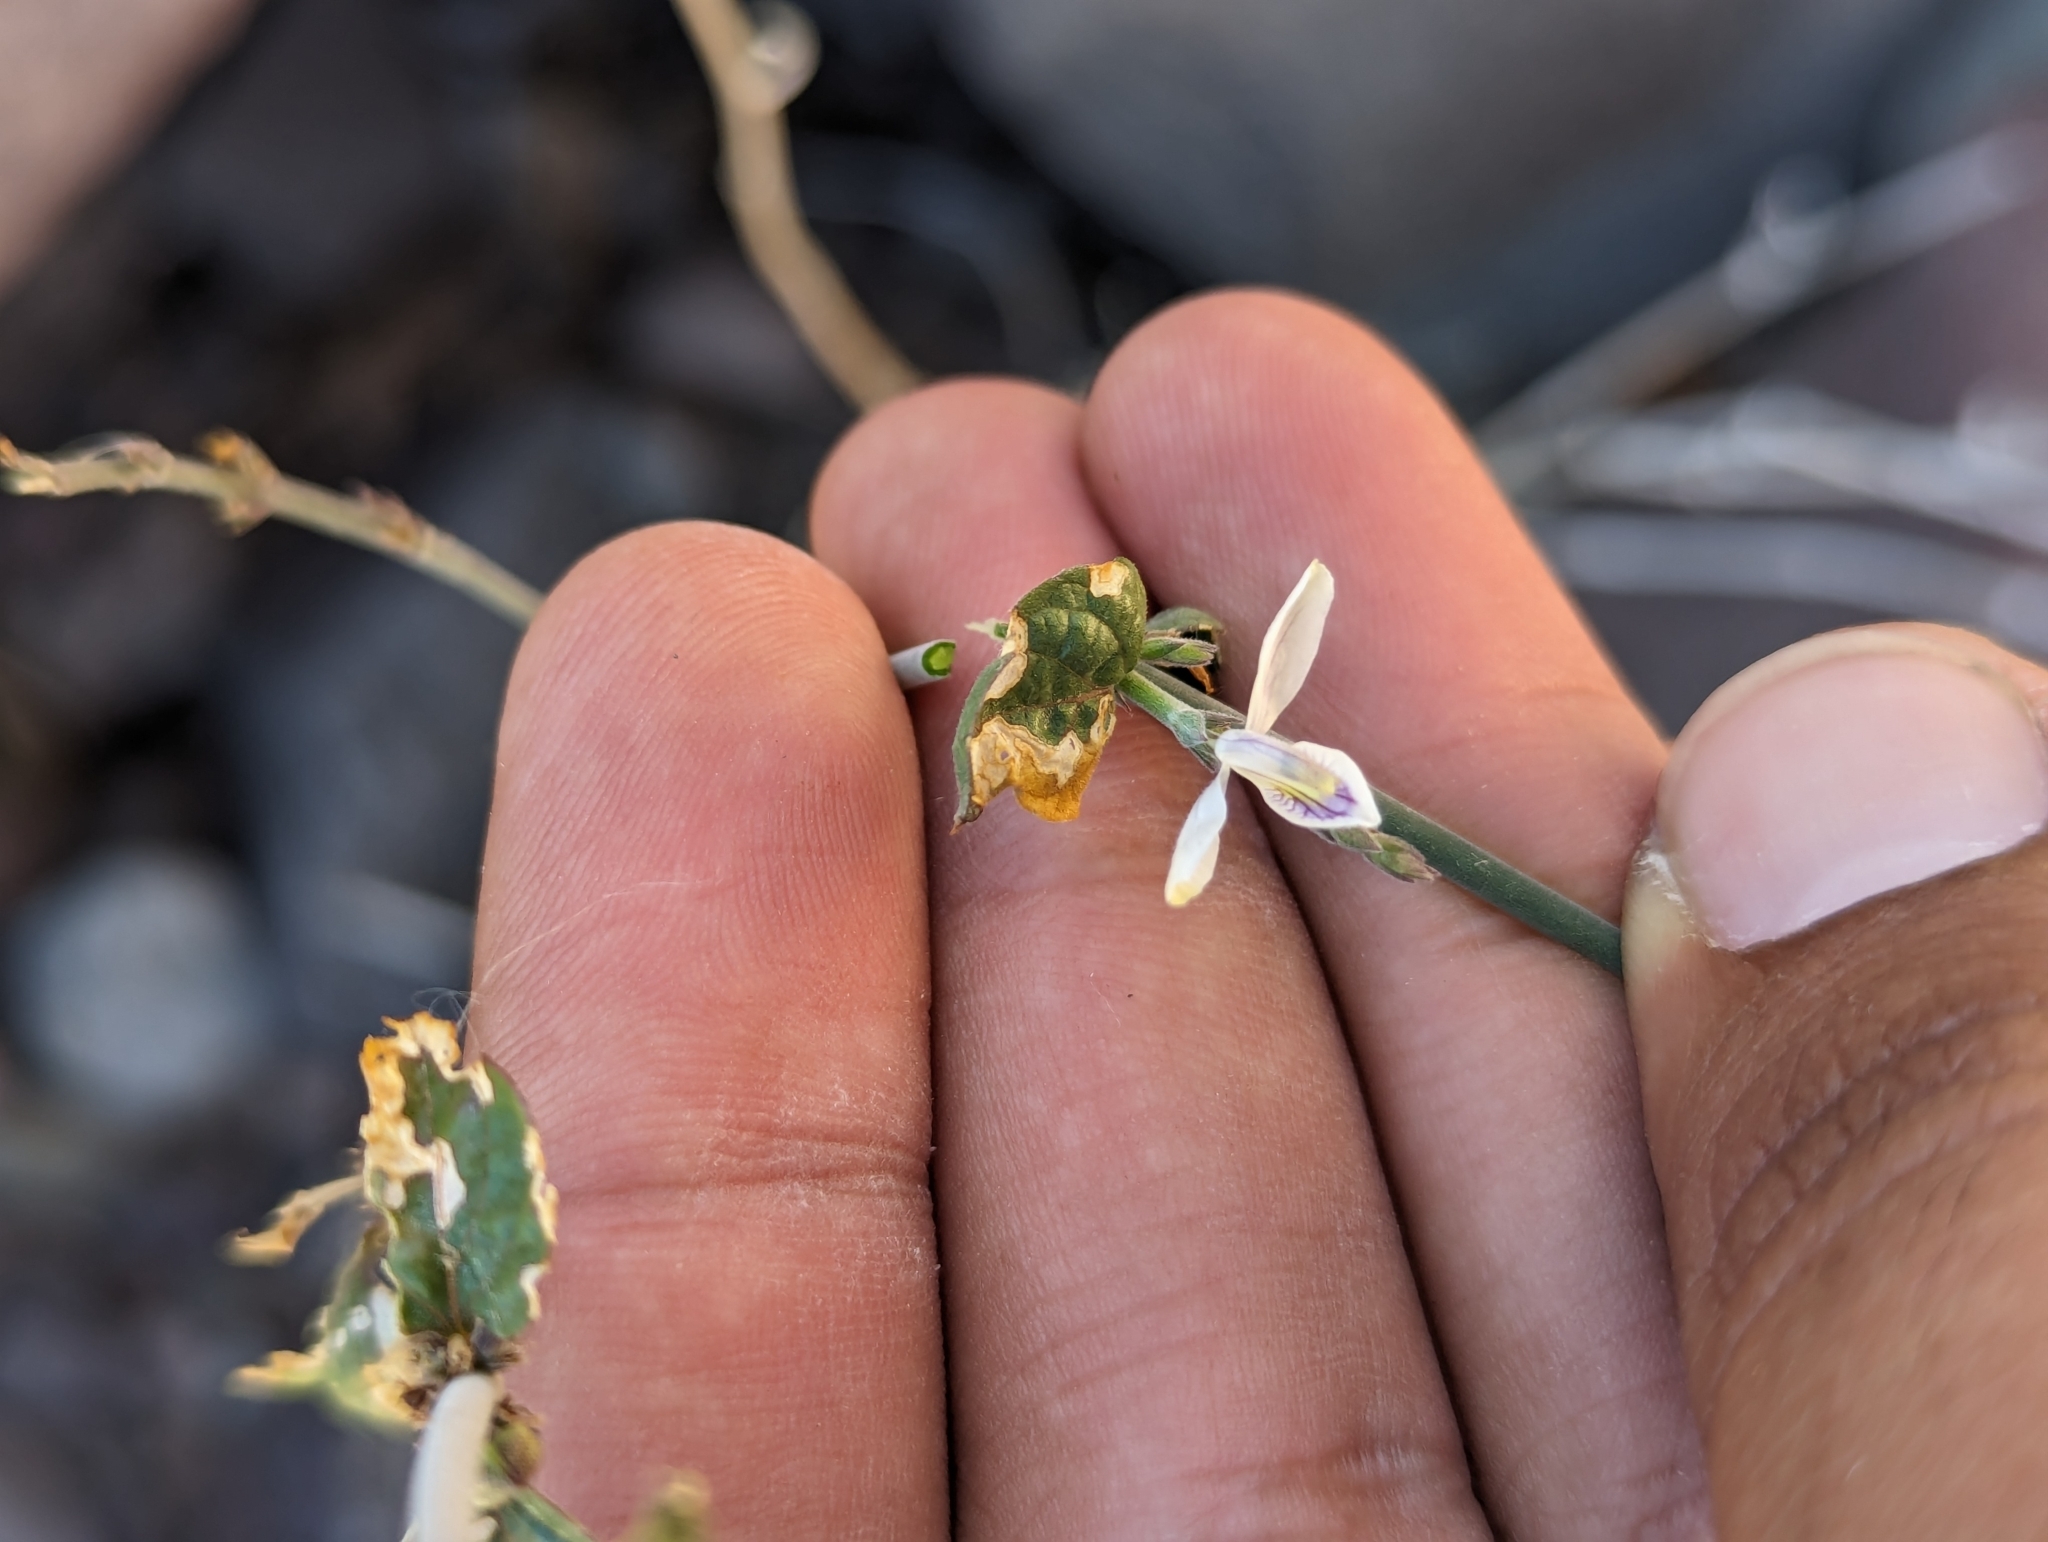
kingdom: Plantae
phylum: Tracheophyta
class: Magnoliopsida
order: Lamiales
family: Acanthaceae
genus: Carlowrightia
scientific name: Carlowrightia arizonica
